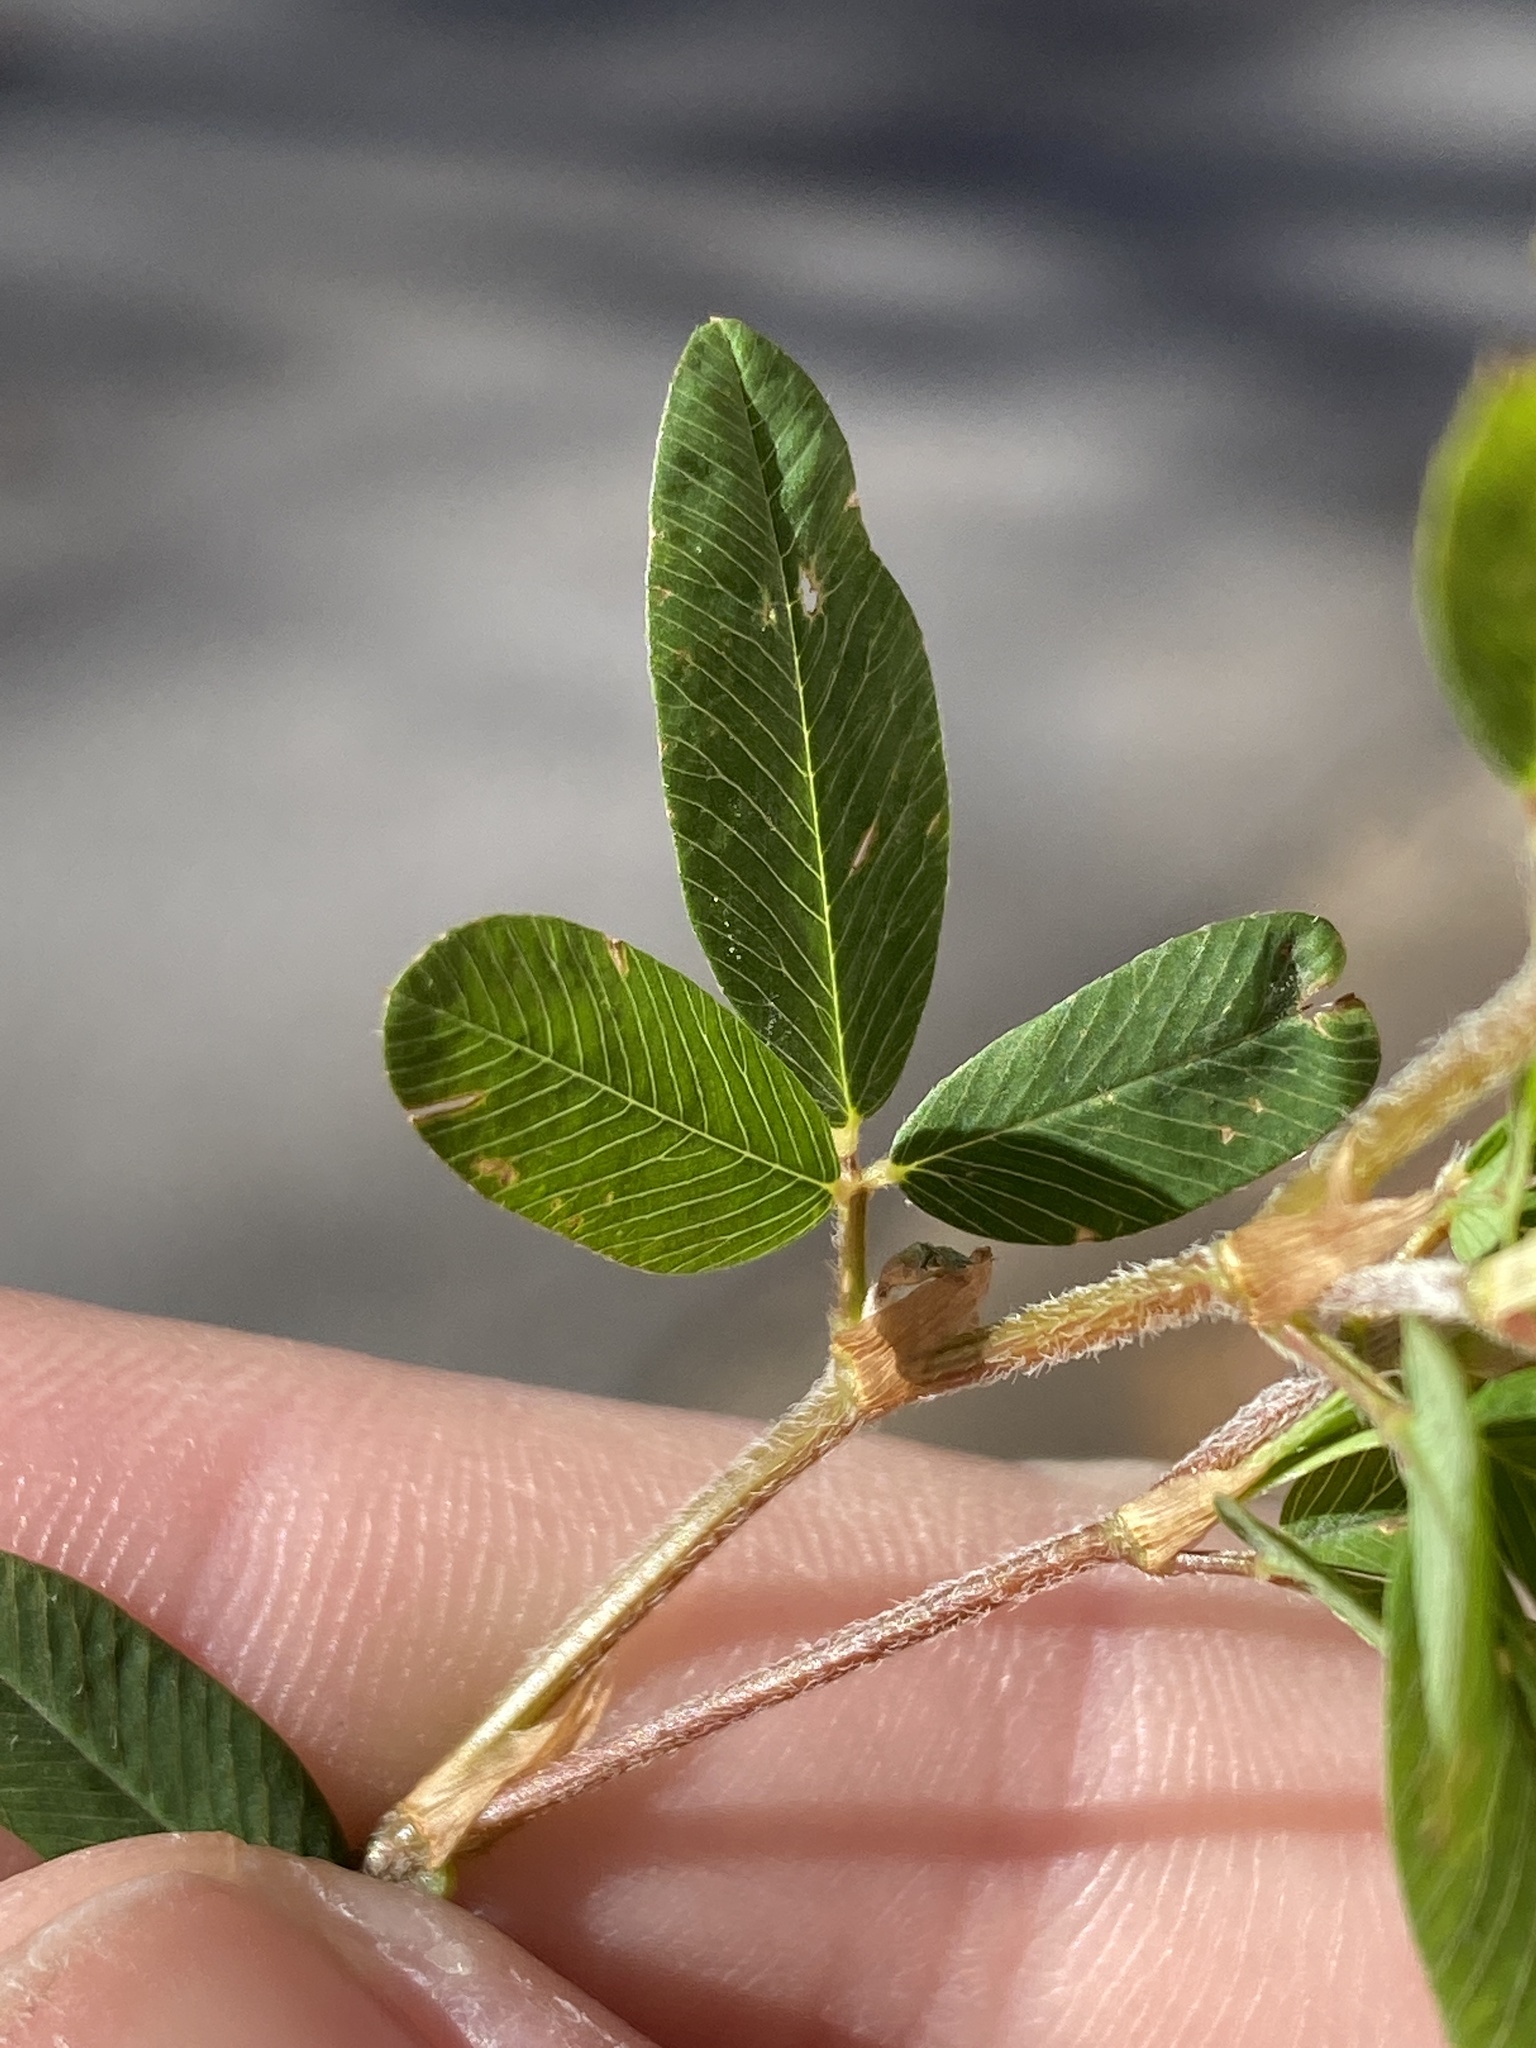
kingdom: Plantae
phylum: Tracheophyta
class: Magnoliopsida
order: Fabales
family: Fabaceae
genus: Kummerowia
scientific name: Kummerowia striata
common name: Japanese clover
